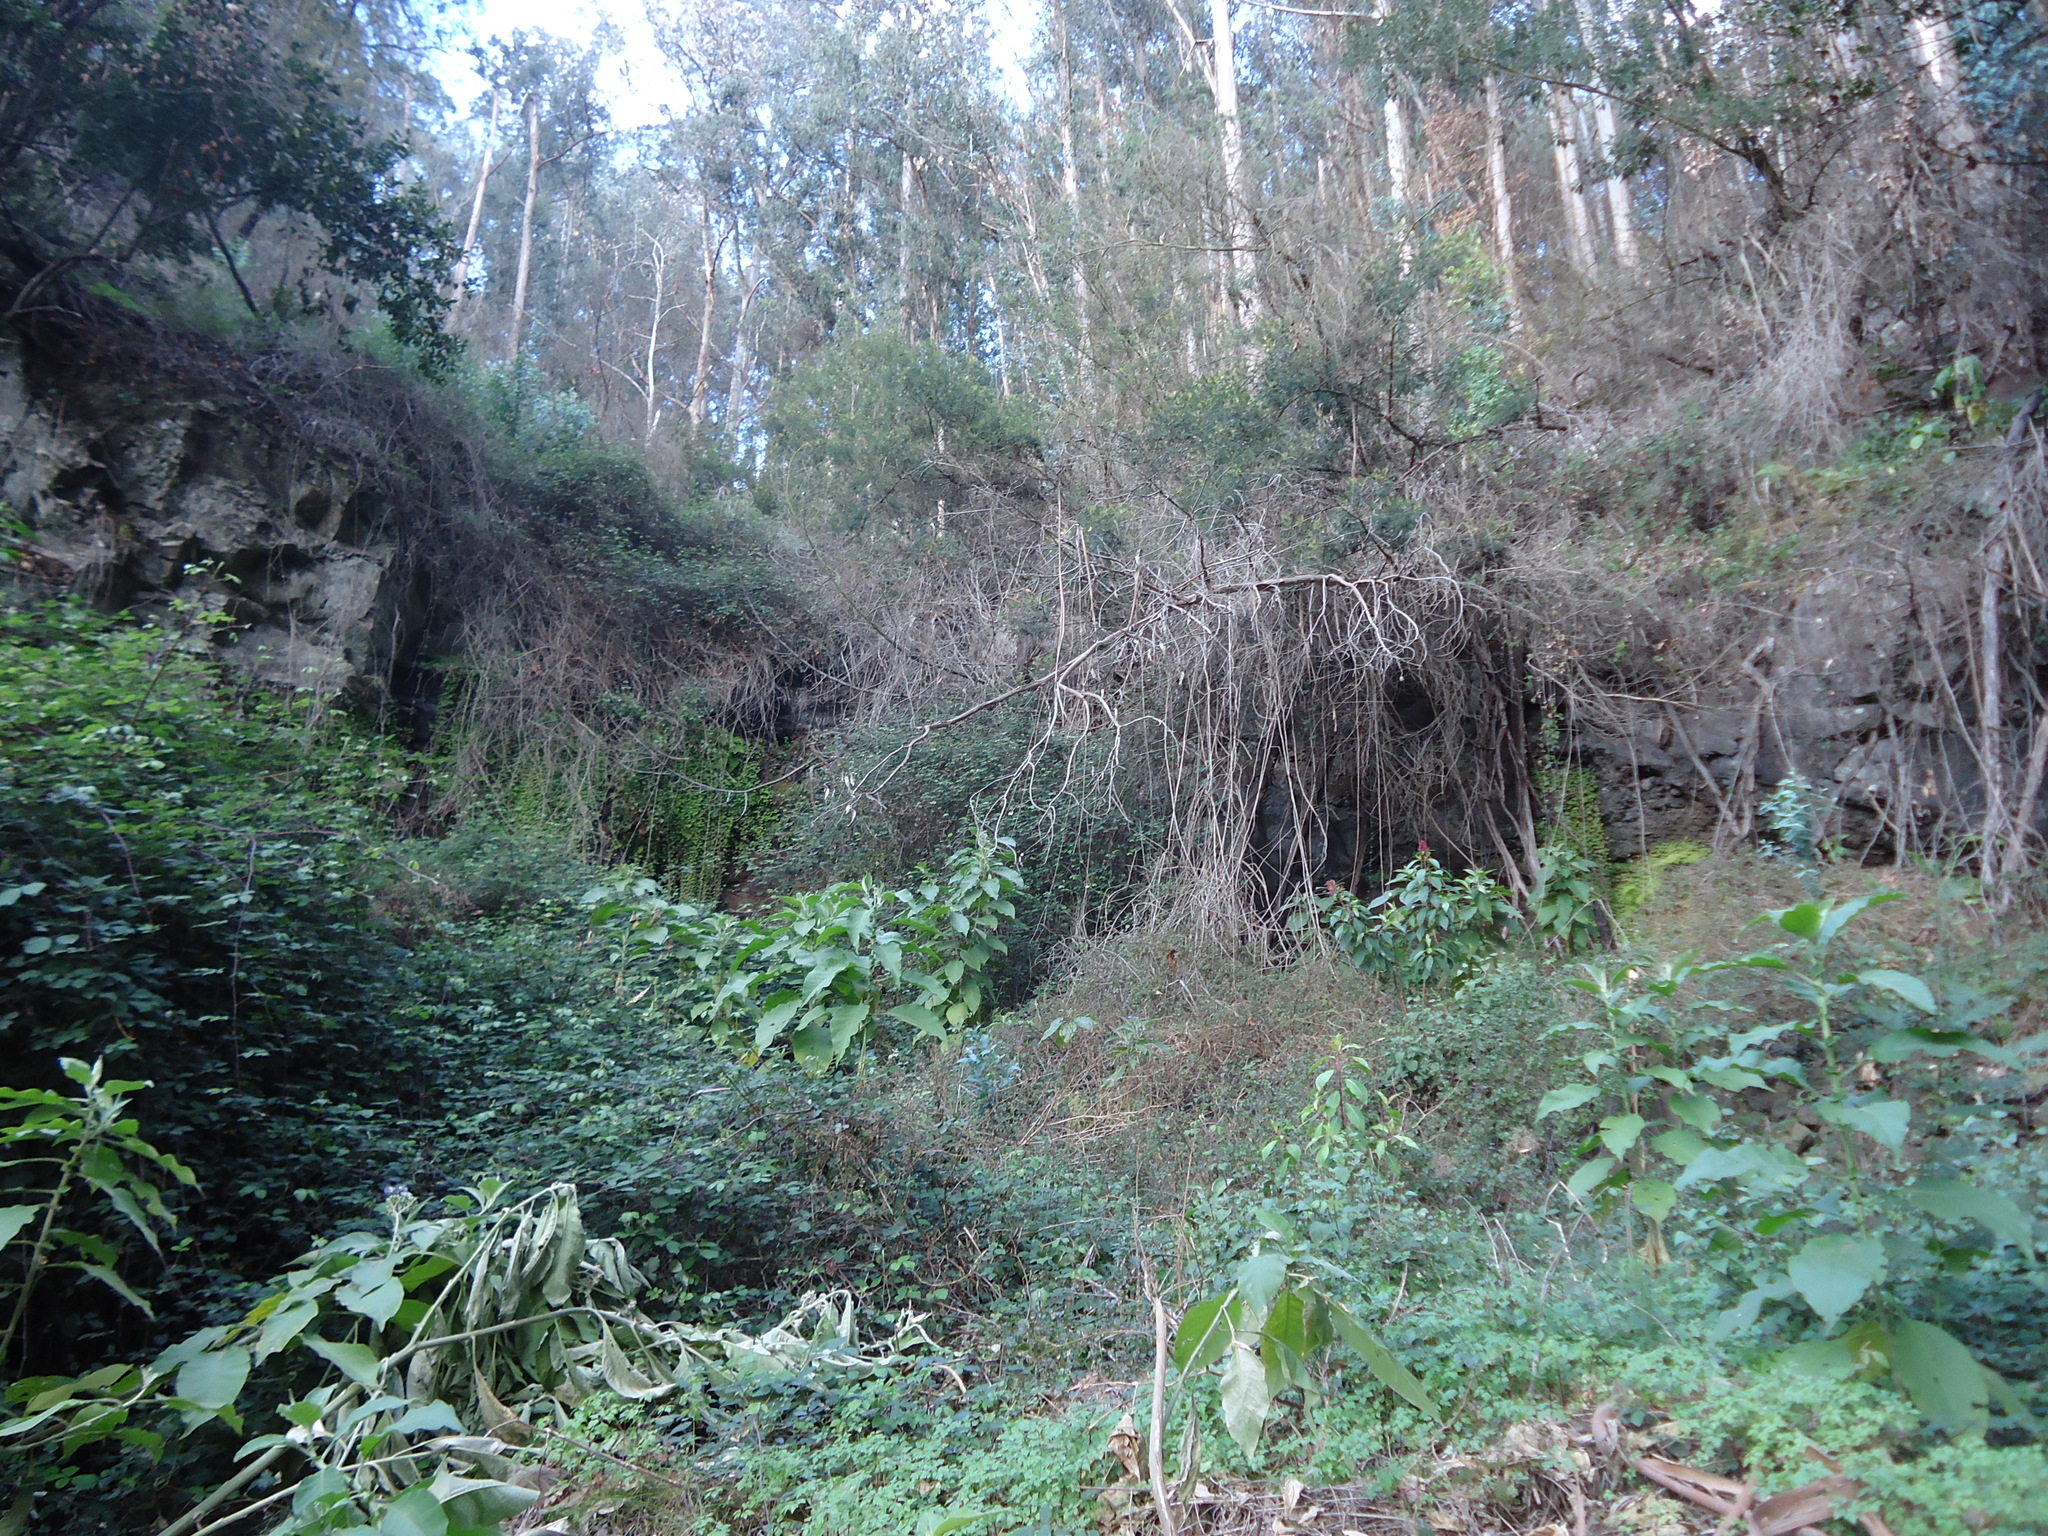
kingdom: Plantae
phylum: Tracheophyta
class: Magnoliopsida
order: Solanales
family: Solanaceae
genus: Solanum
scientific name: Solanum mauritianum
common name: Earleaf nightshade
